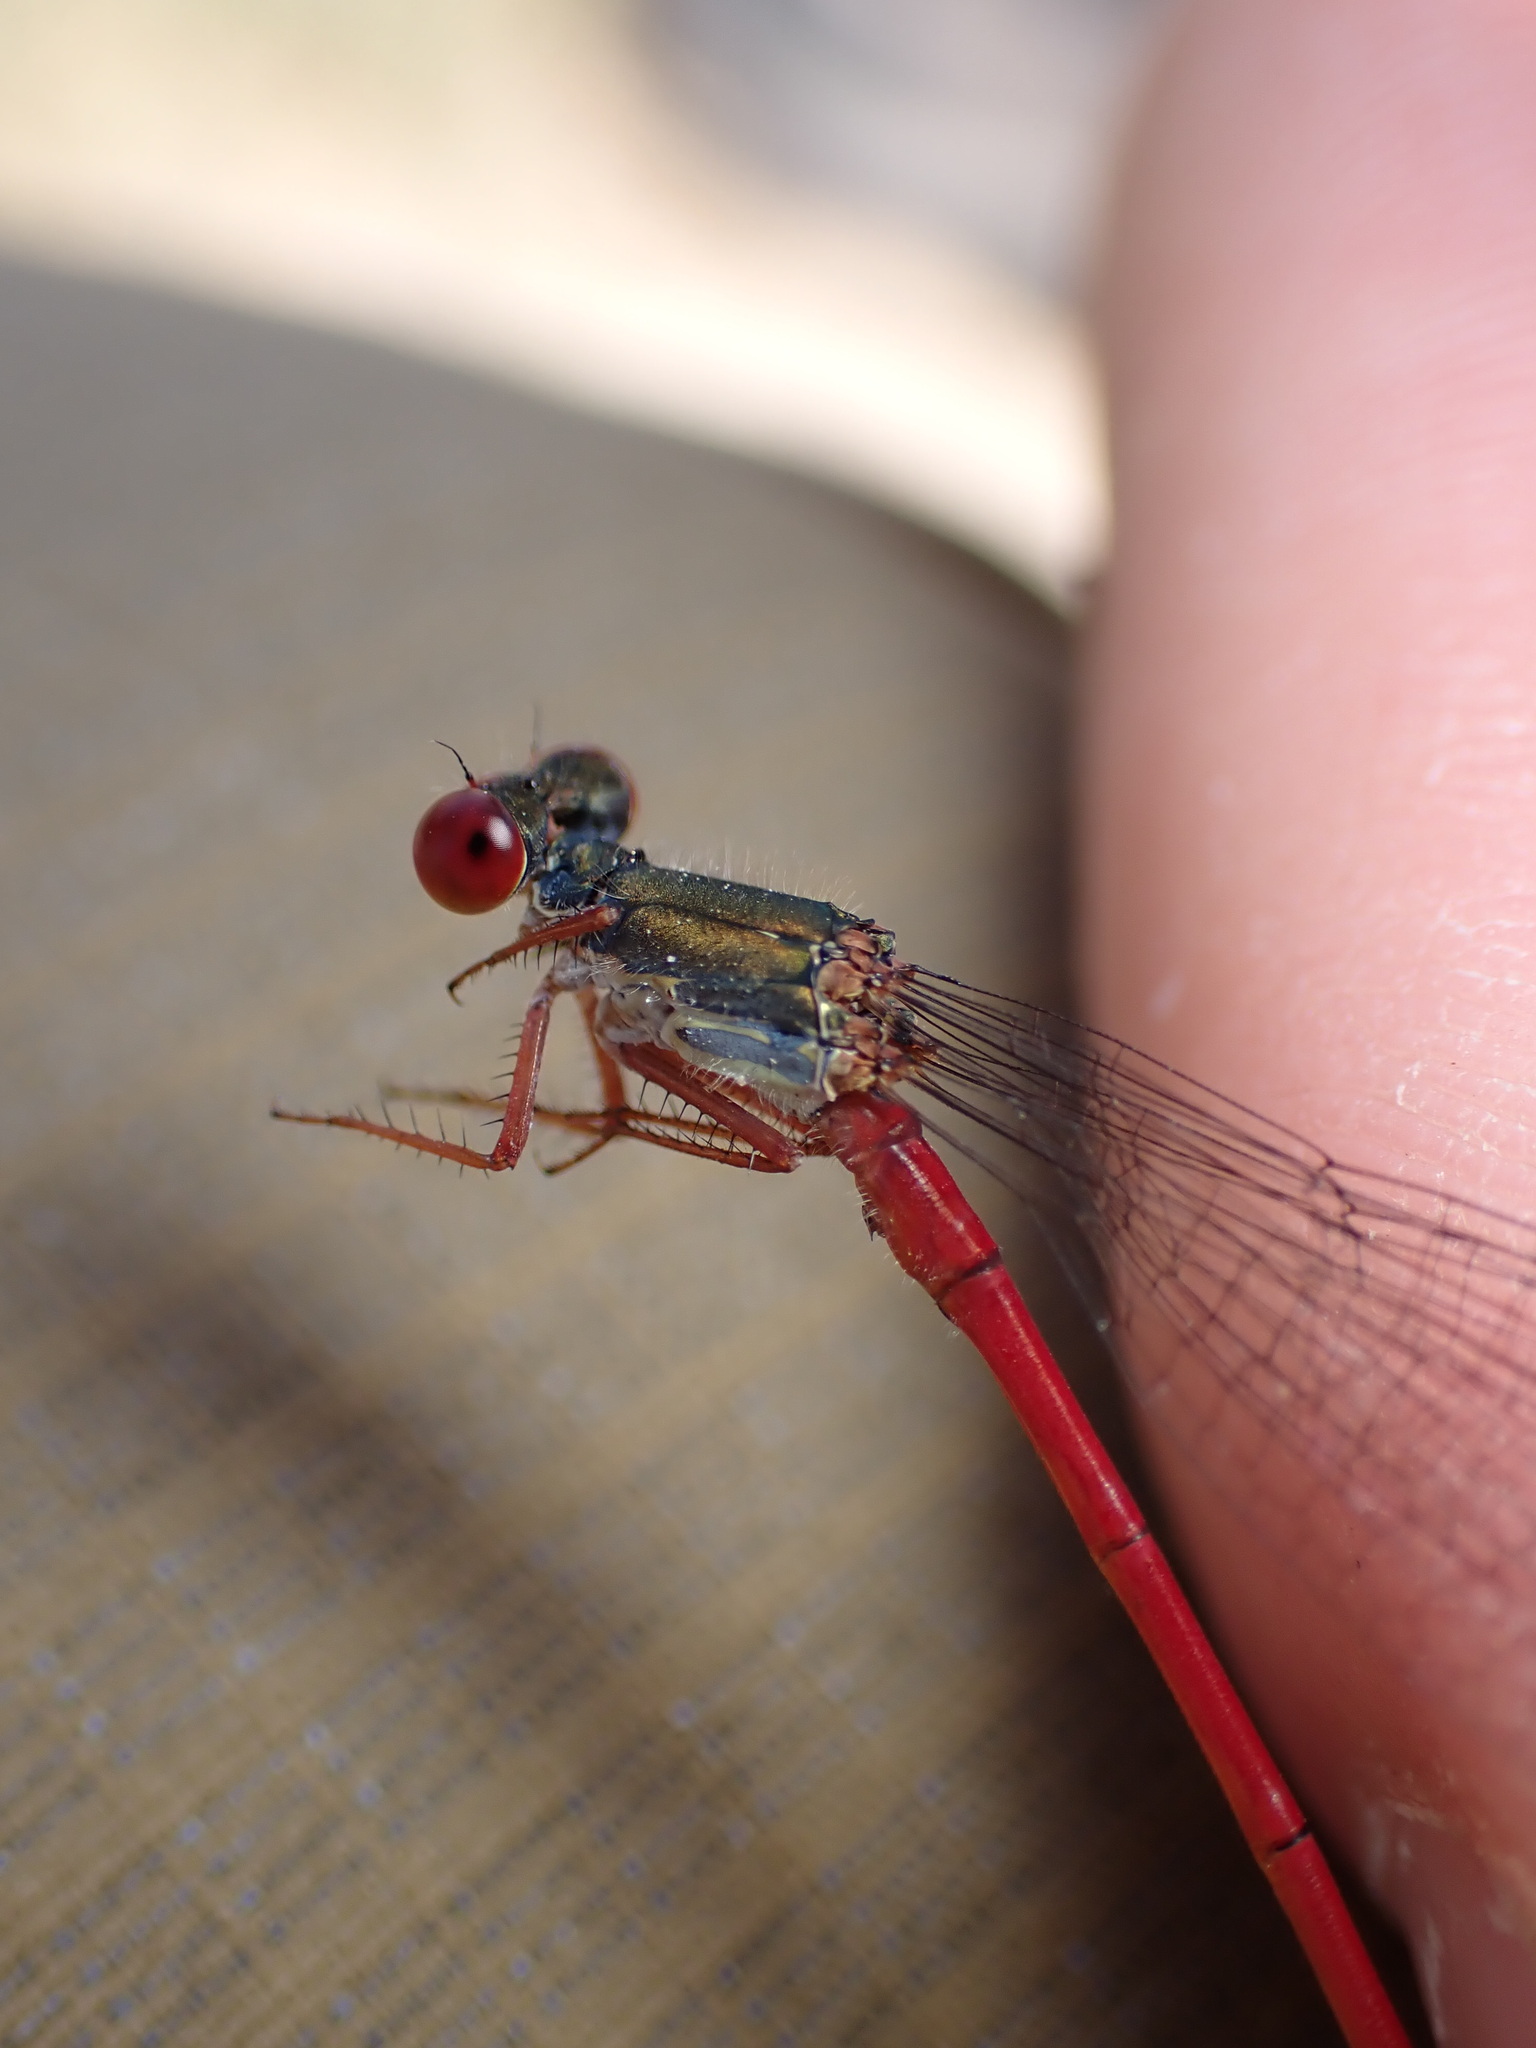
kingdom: Animalia
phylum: Arthropoda
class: Insecta
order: Odonata
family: Coenagrionidae
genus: Ceriagrion
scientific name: Ceriagrion tenellum
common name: Small red damselfly
